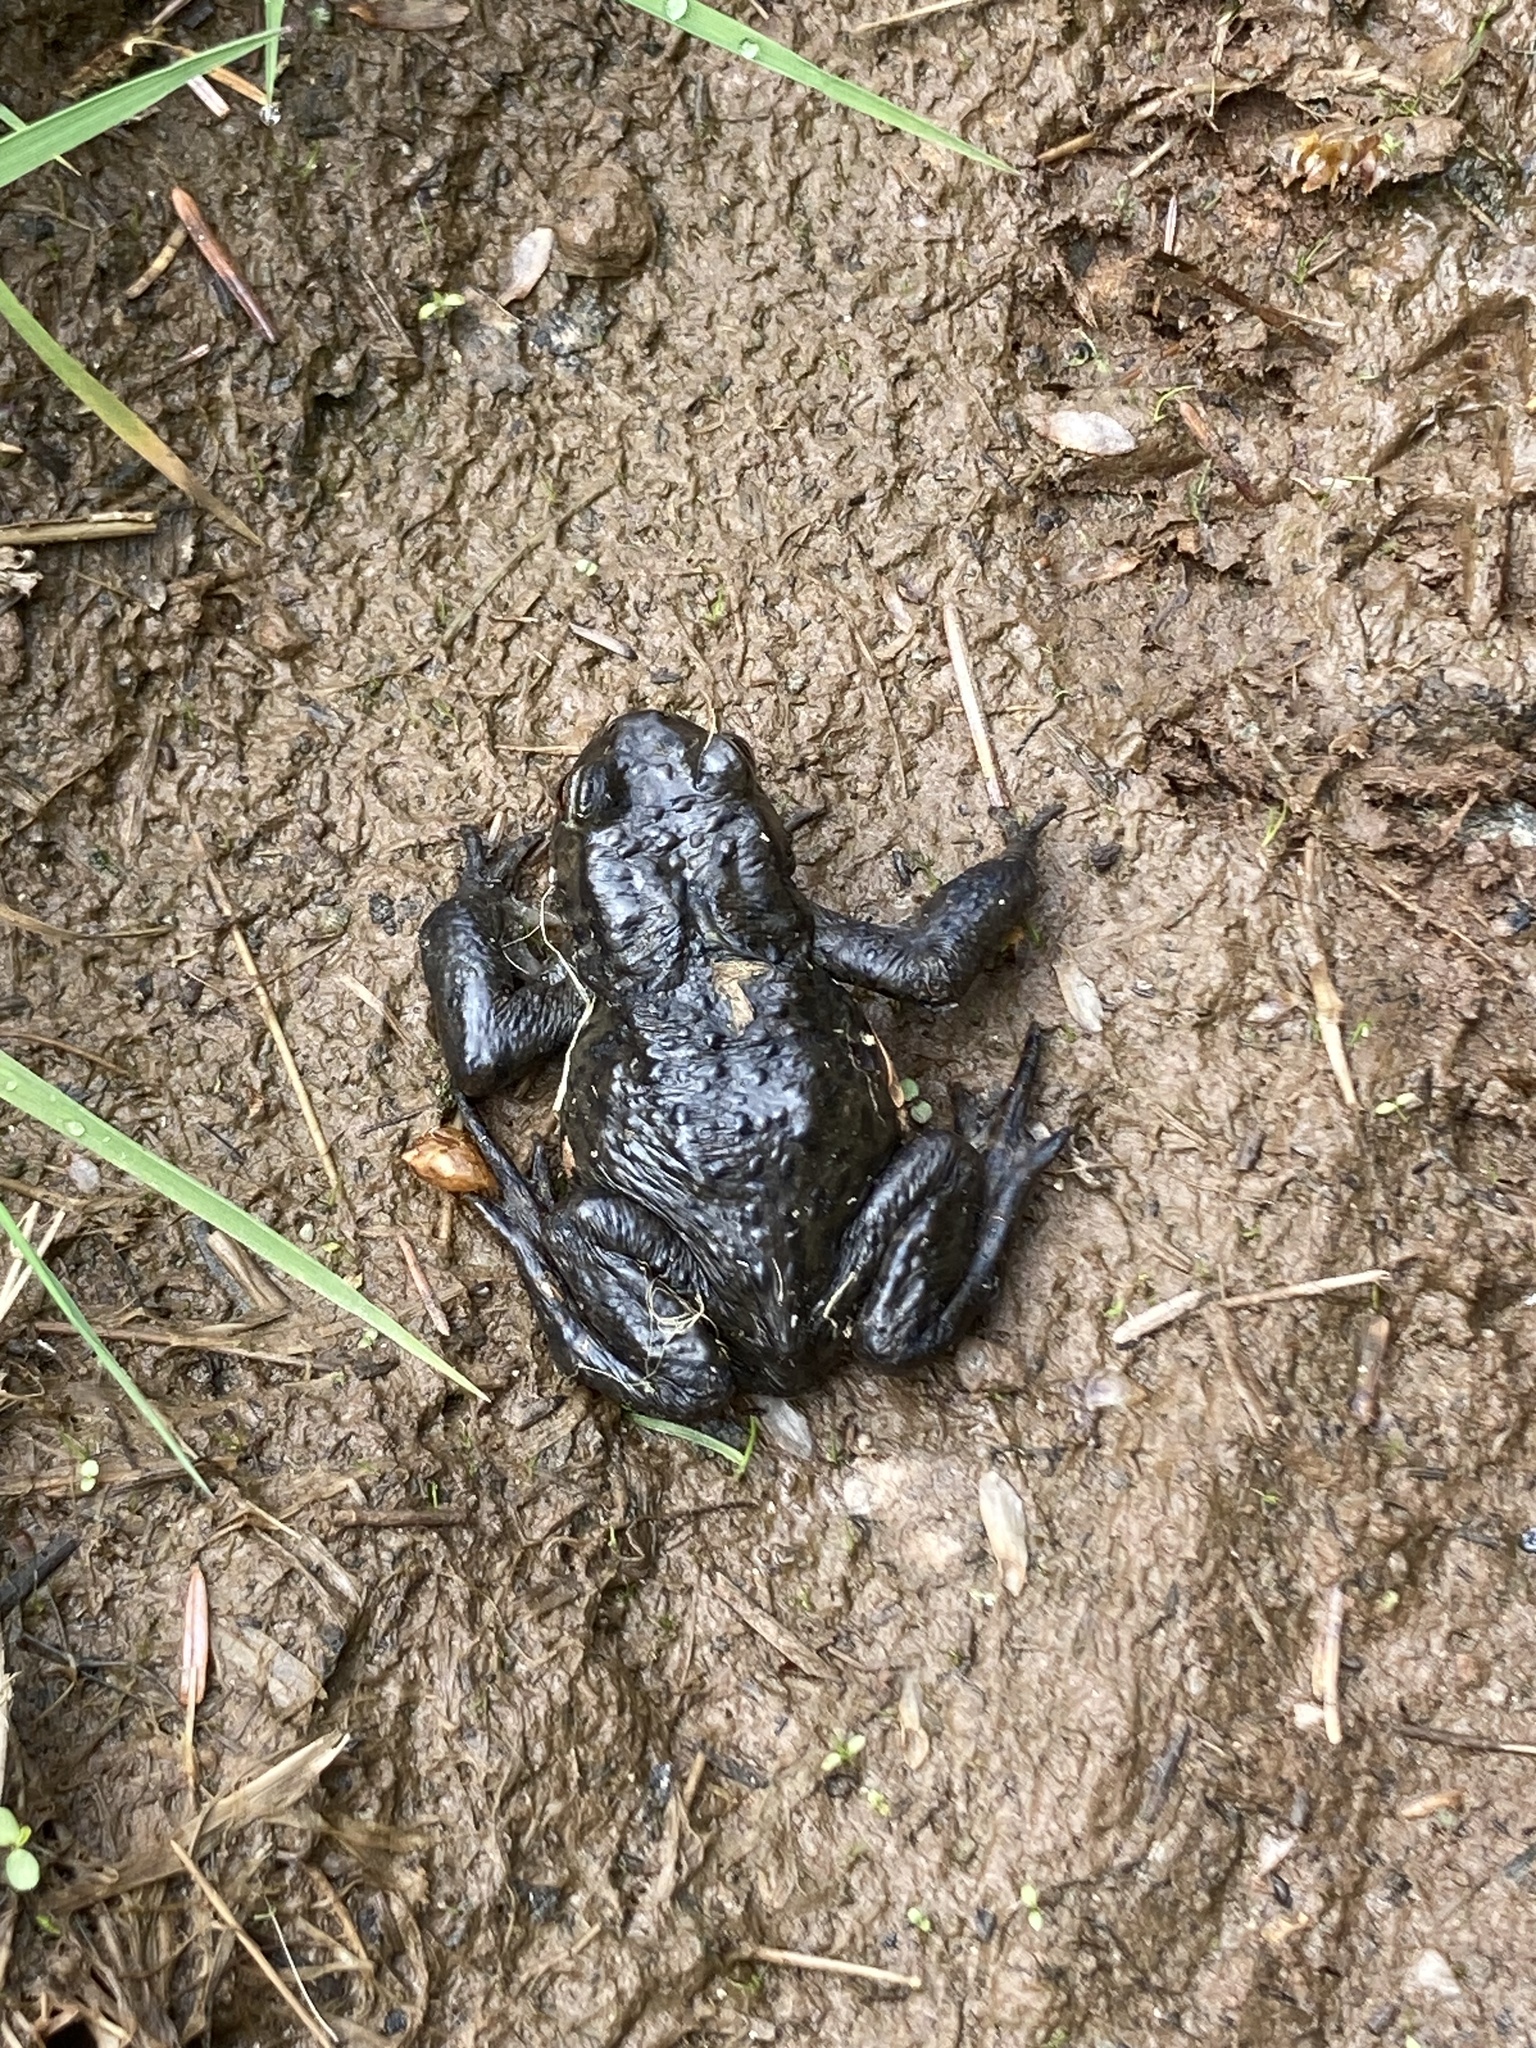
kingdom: Animalia
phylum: Chordata
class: Amphibia
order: Anura
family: Bufonidae
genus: Bufo
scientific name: Bufo bufo
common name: Common toad
